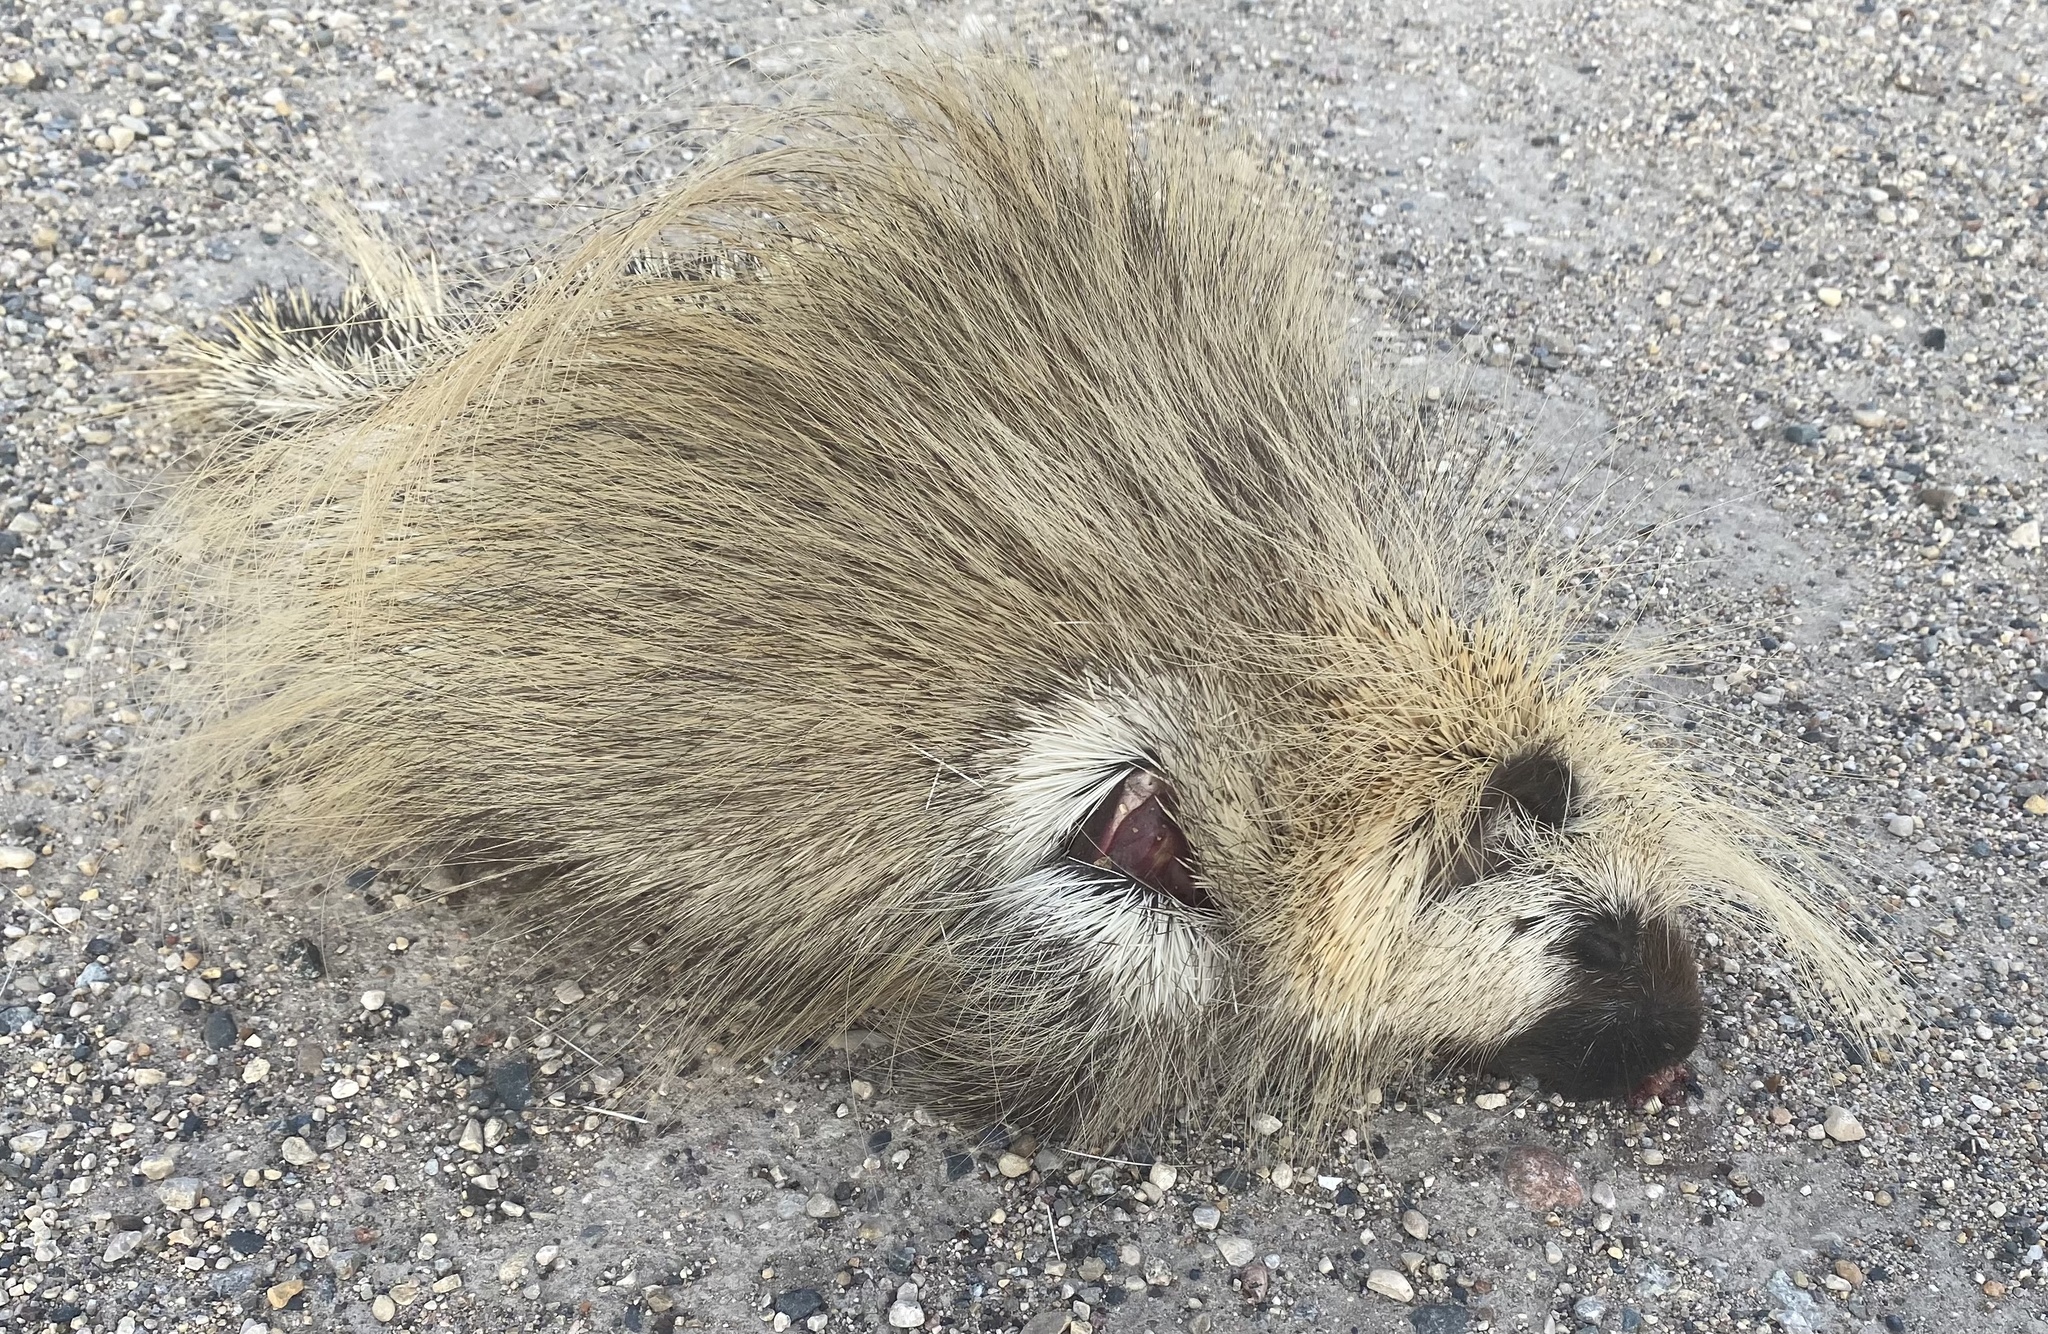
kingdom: Animalia
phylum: Chordata
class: Mammalia
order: Rodentia
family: Erethizontidae
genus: Erethizon
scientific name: Erethizon dorsatus
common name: North american porcupine
